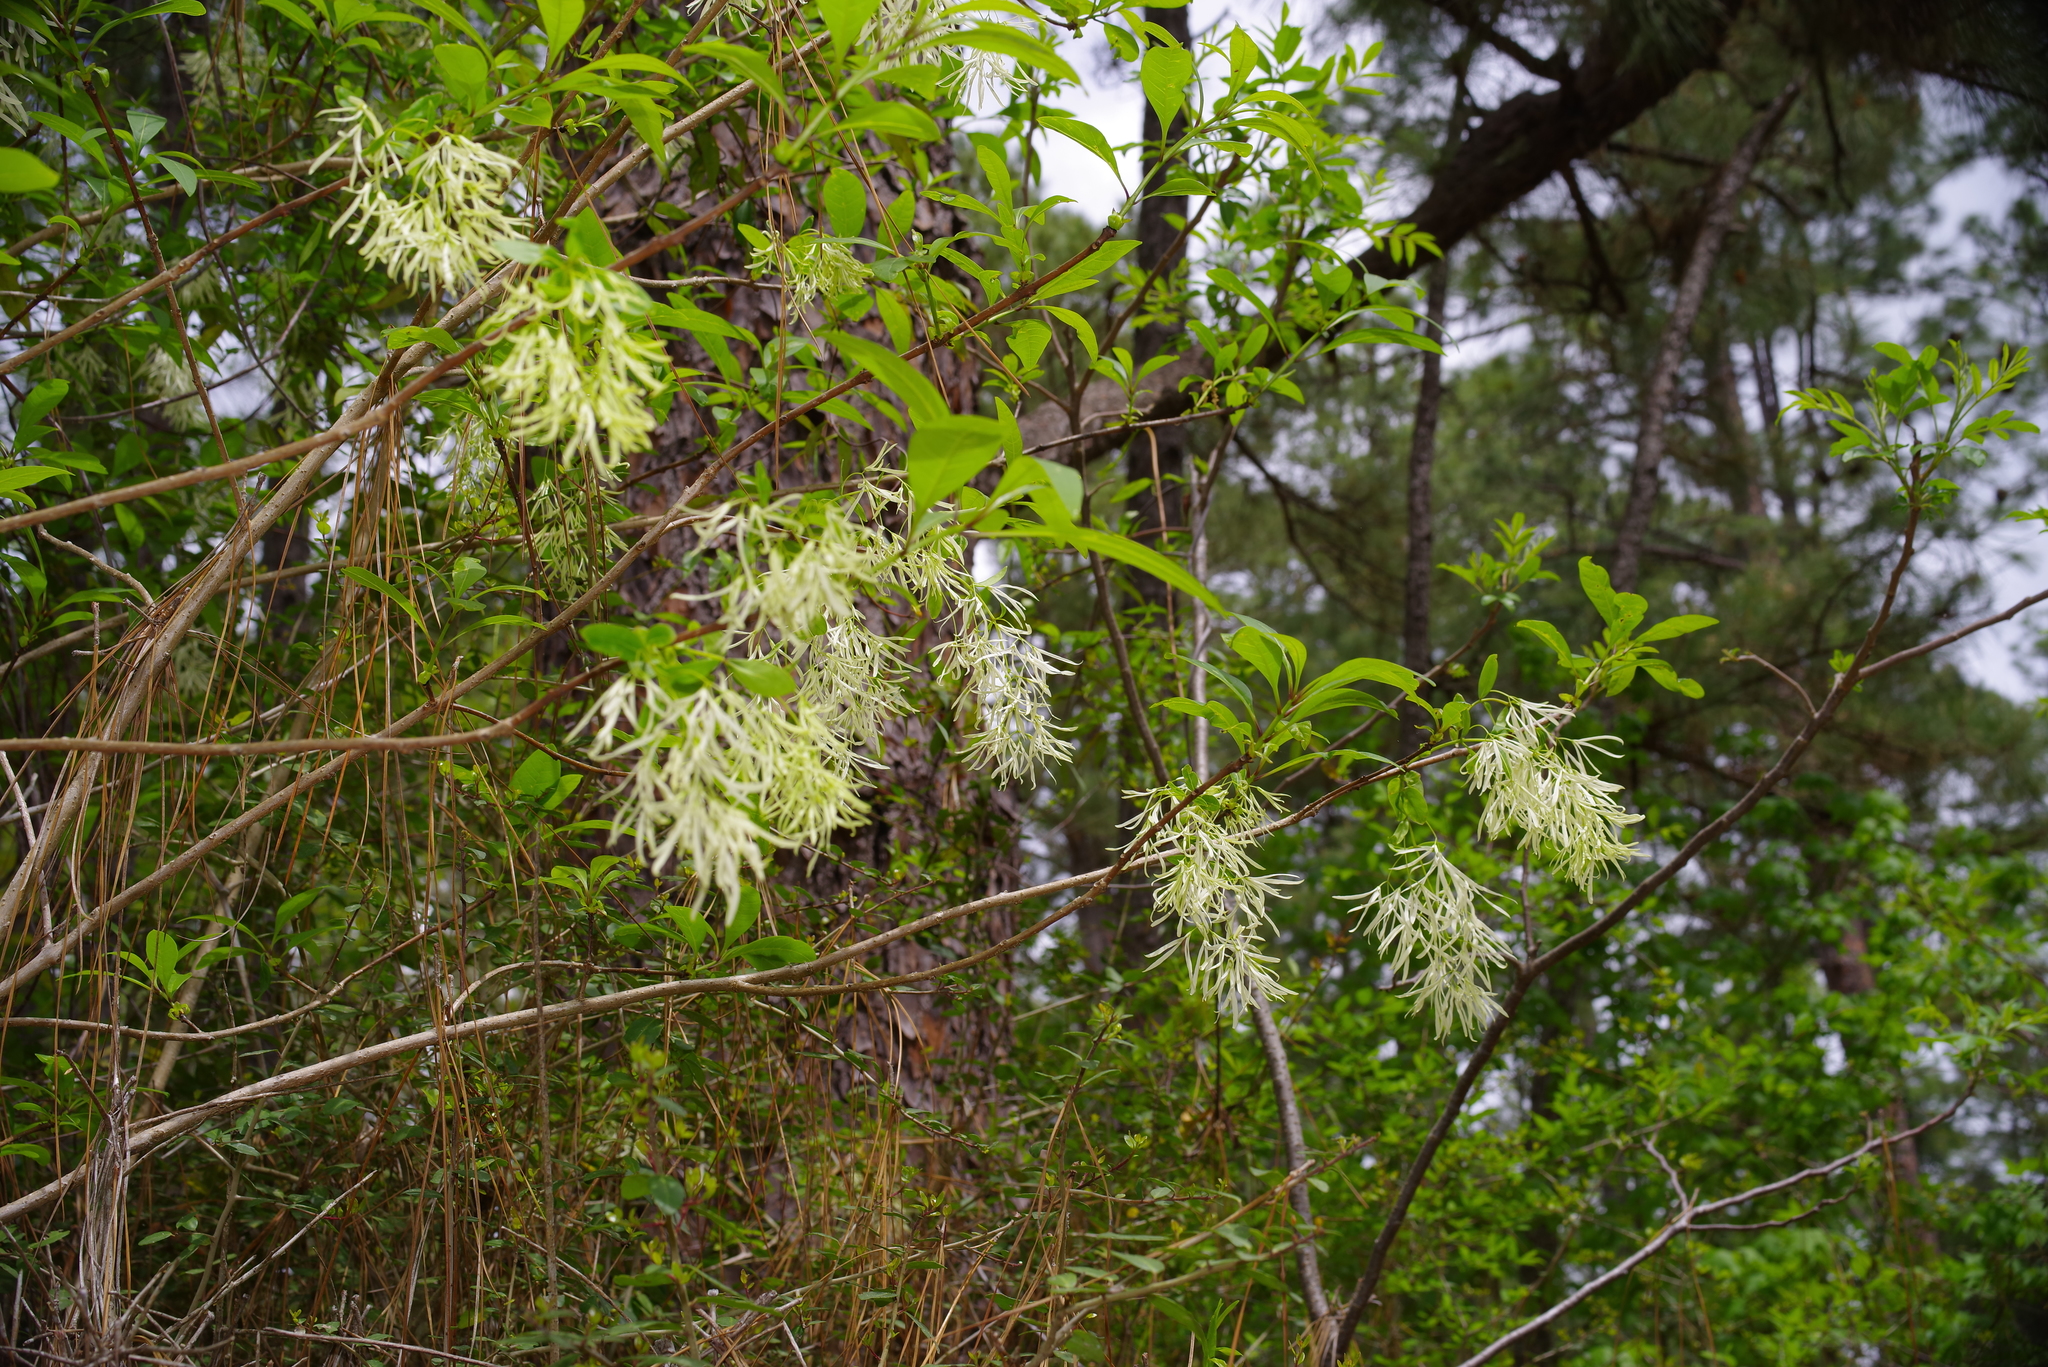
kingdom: Plantae
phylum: Tracheophyta
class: Magnoliopsida
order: Lamiales
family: Oleaceae
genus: Chionanthus
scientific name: Chionanthus virginicus
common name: American fringetree
